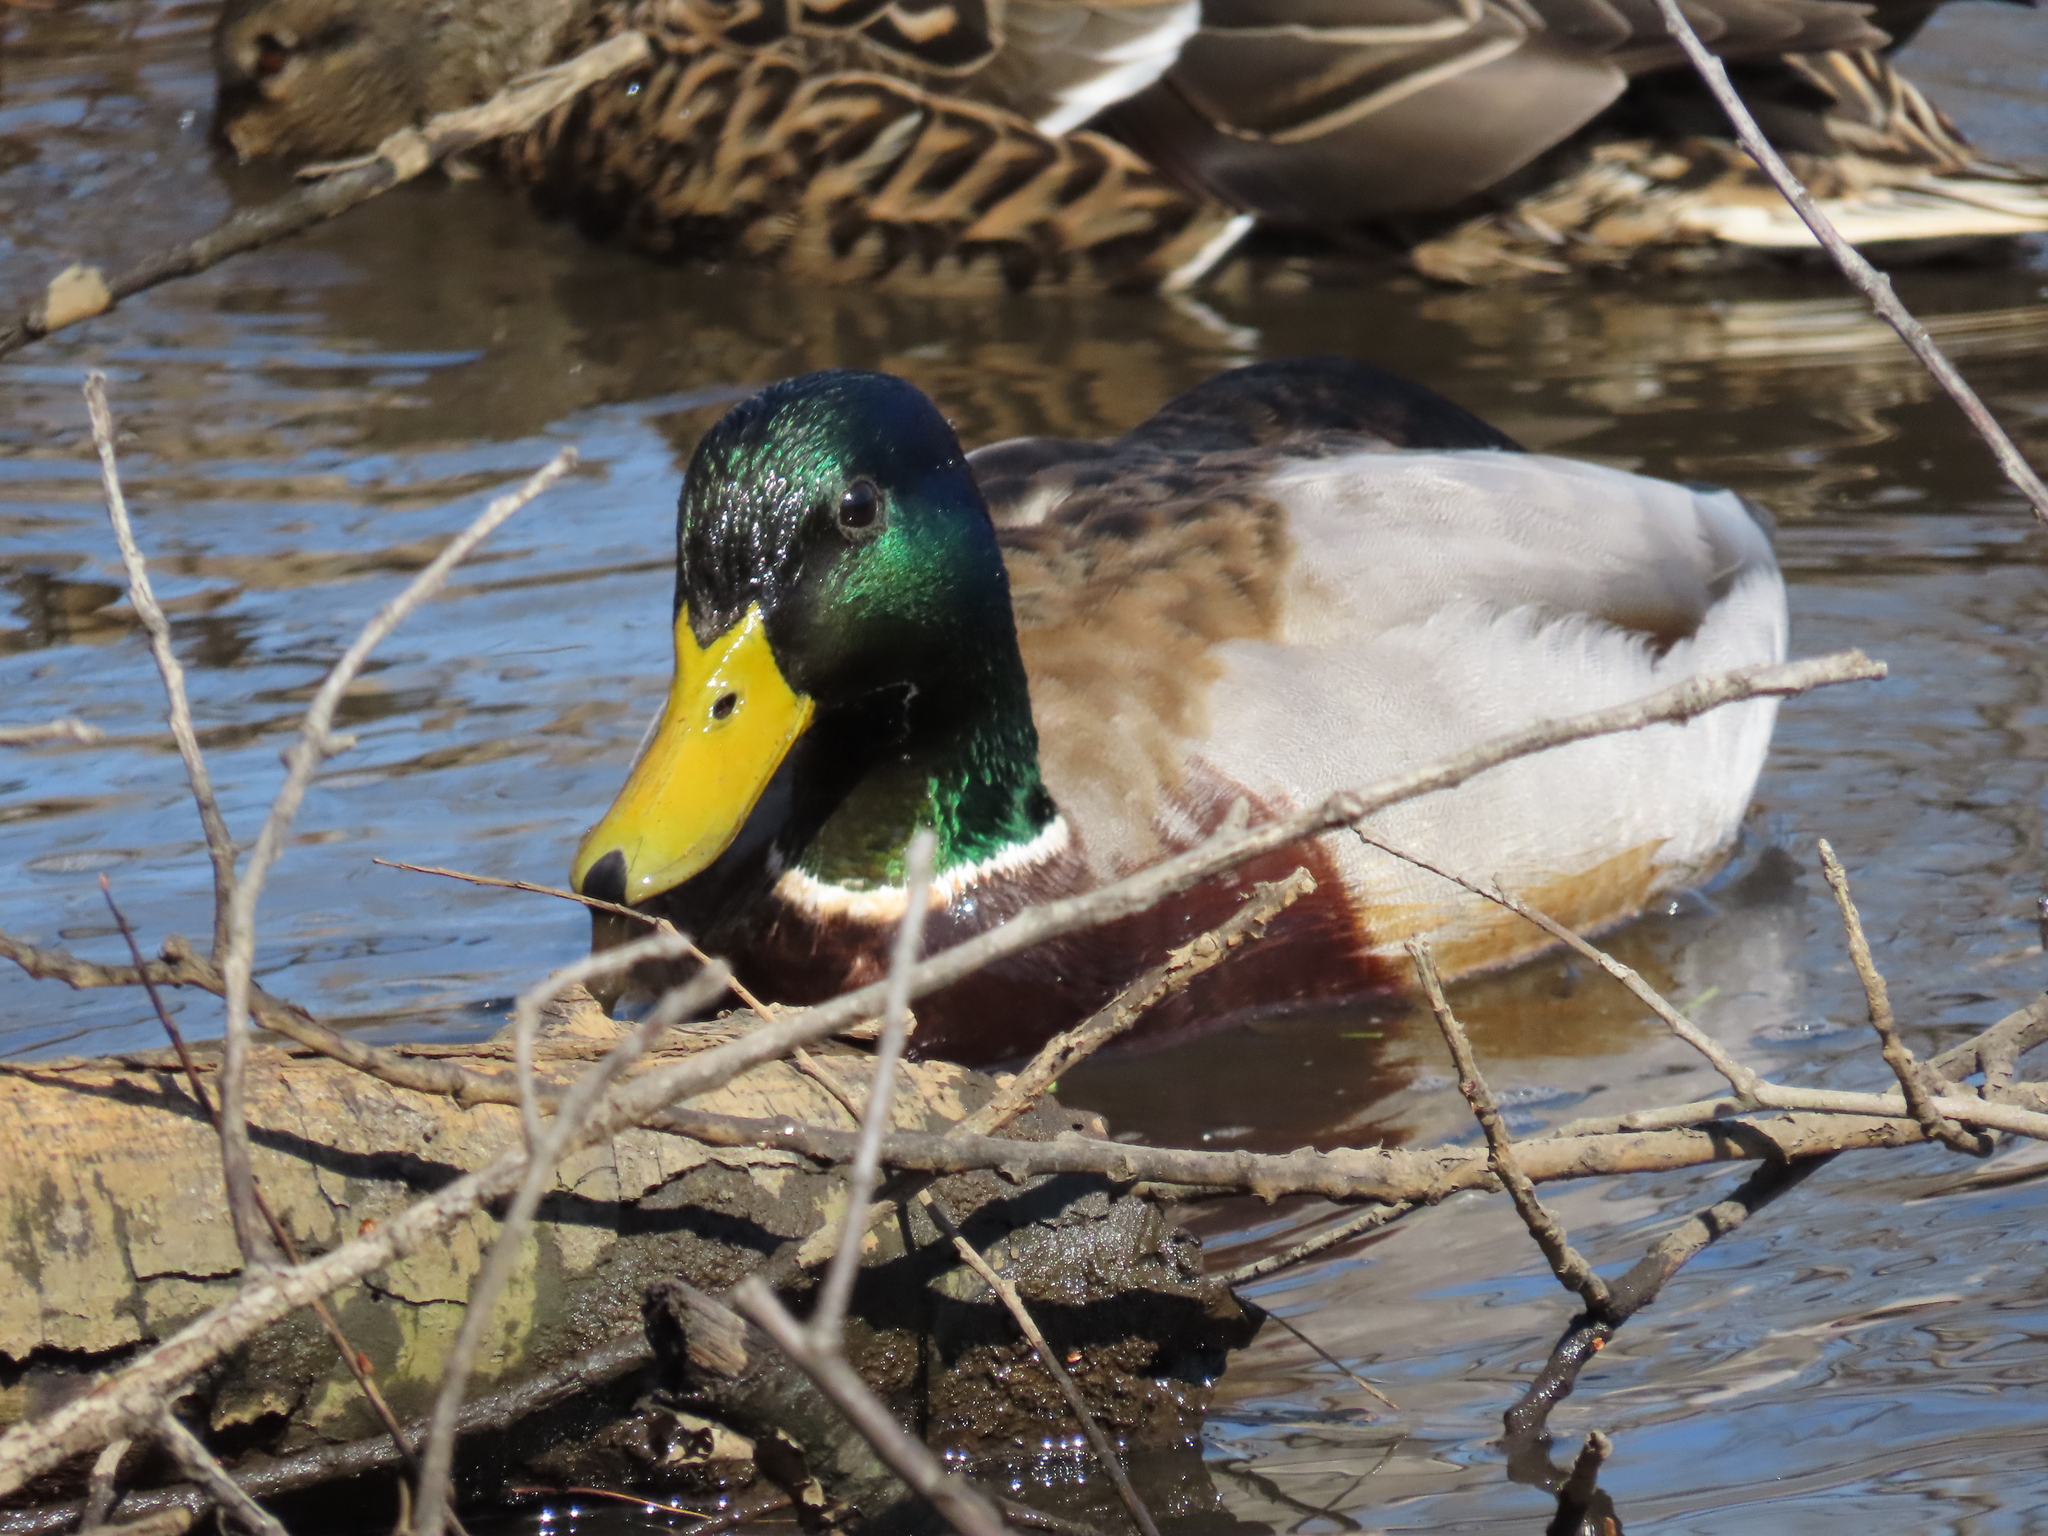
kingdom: Animalia
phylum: Chordata
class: Aves
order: Anseriformes
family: Anatidae
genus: Anas
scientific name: Anas platyrhynchos
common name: Mallard
